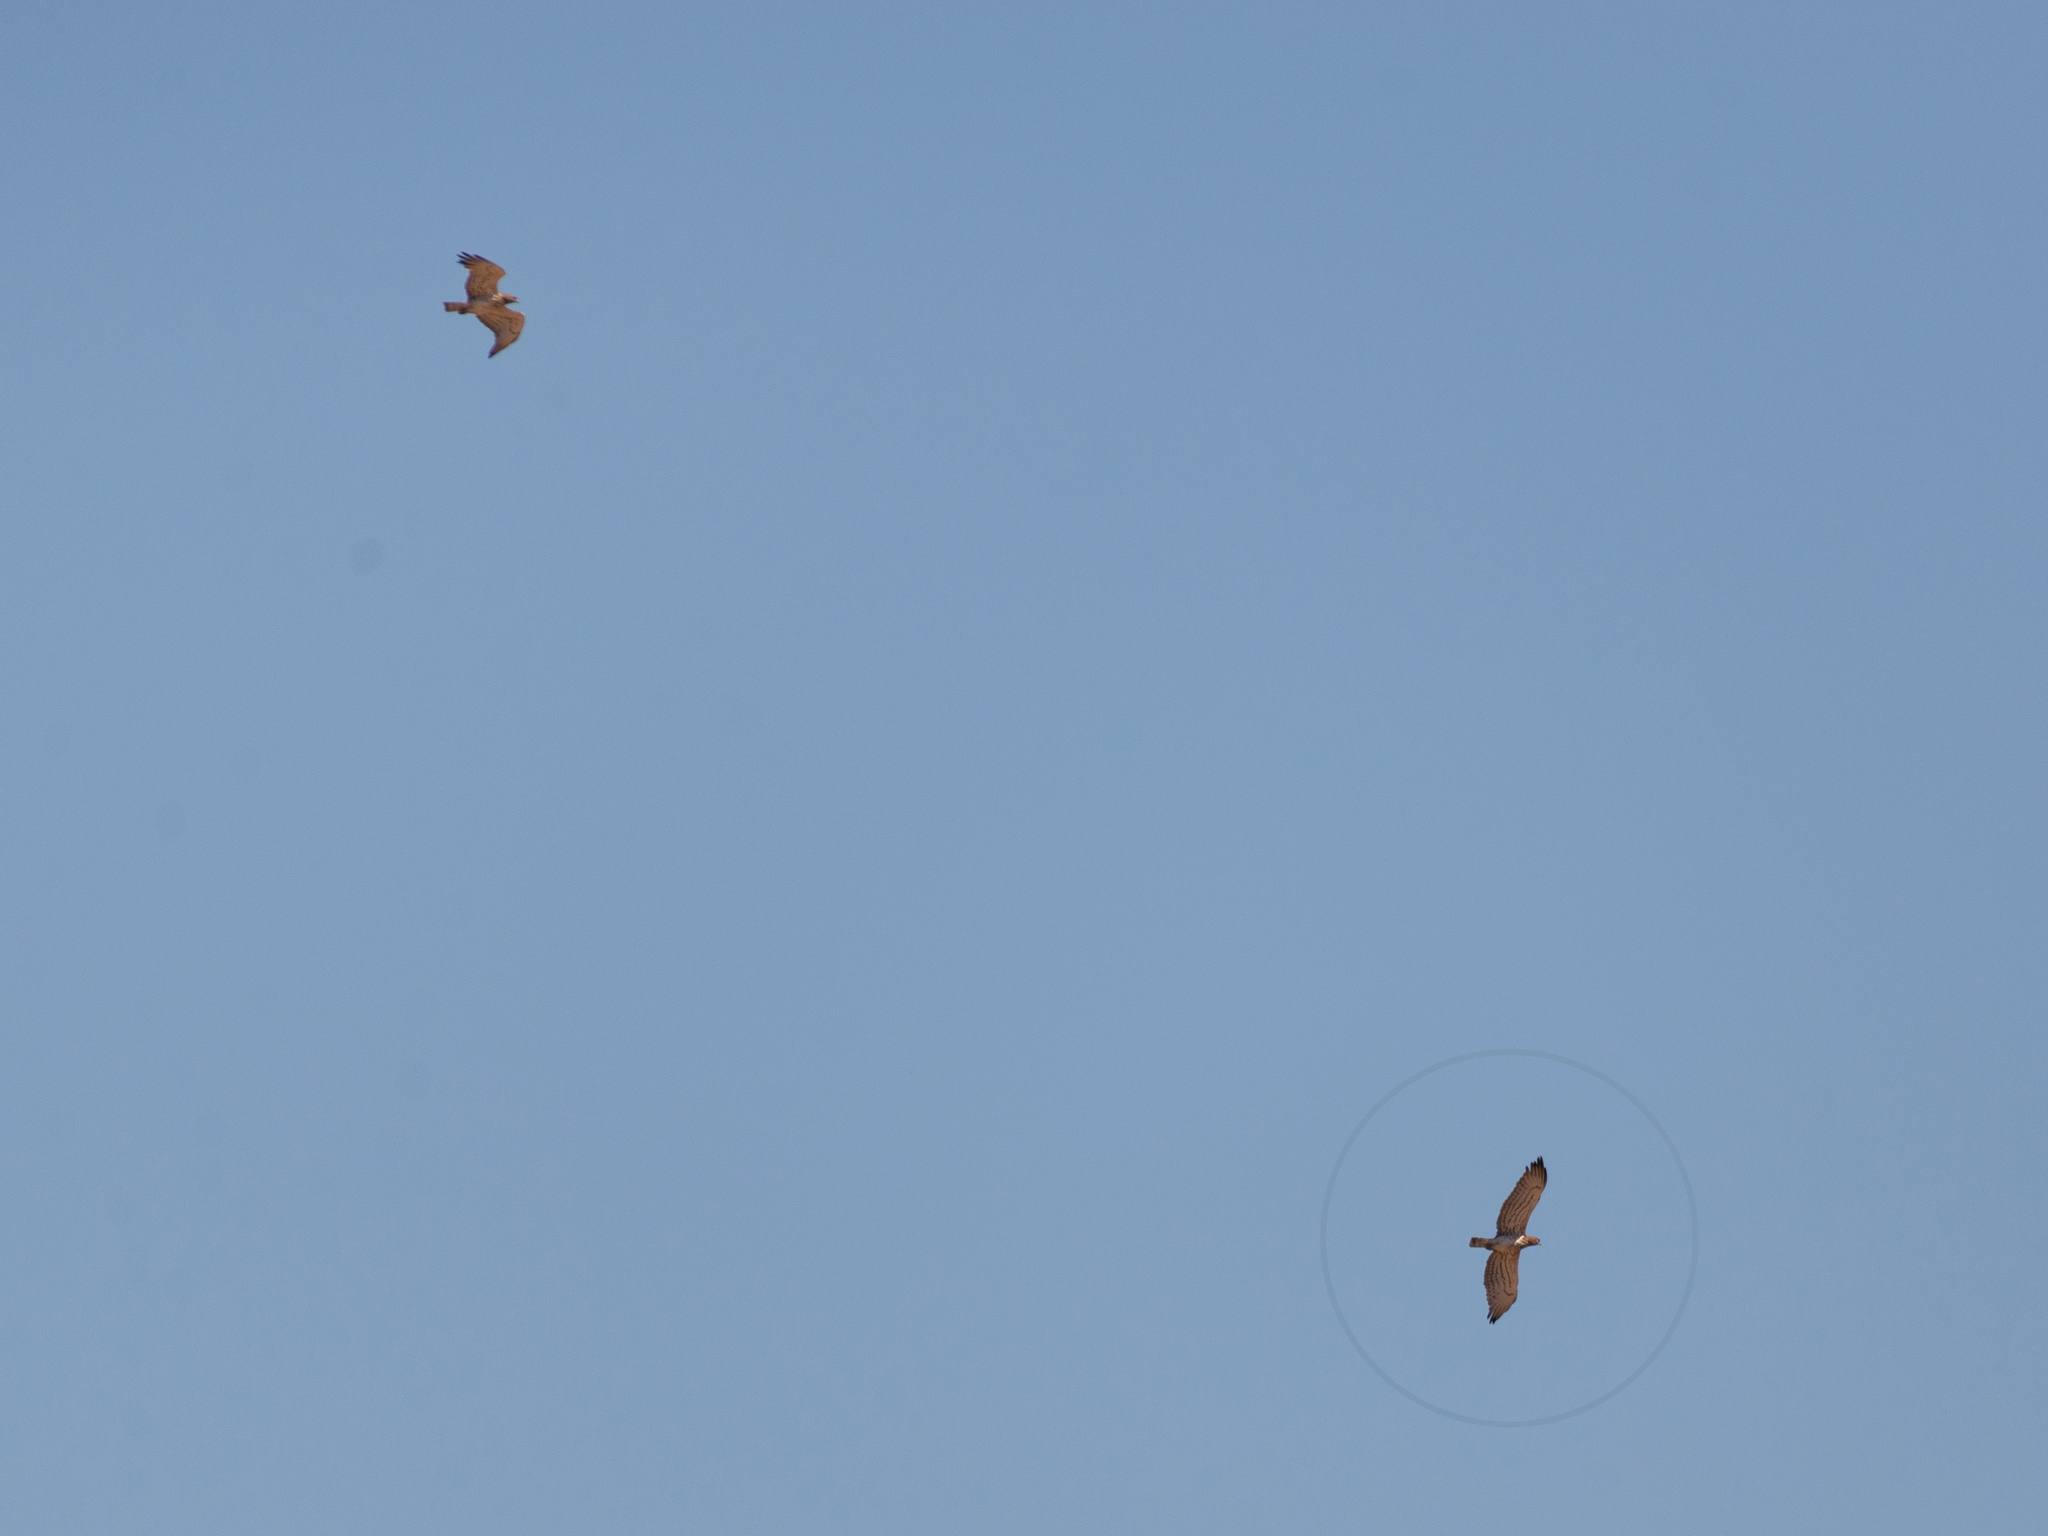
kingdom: Animalia
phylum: Chordata
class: Aves
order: Accipitriformes
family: Accipitridae
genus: Circaetus
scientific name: Circaetus gallicus
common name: Short-toed snake eagle
